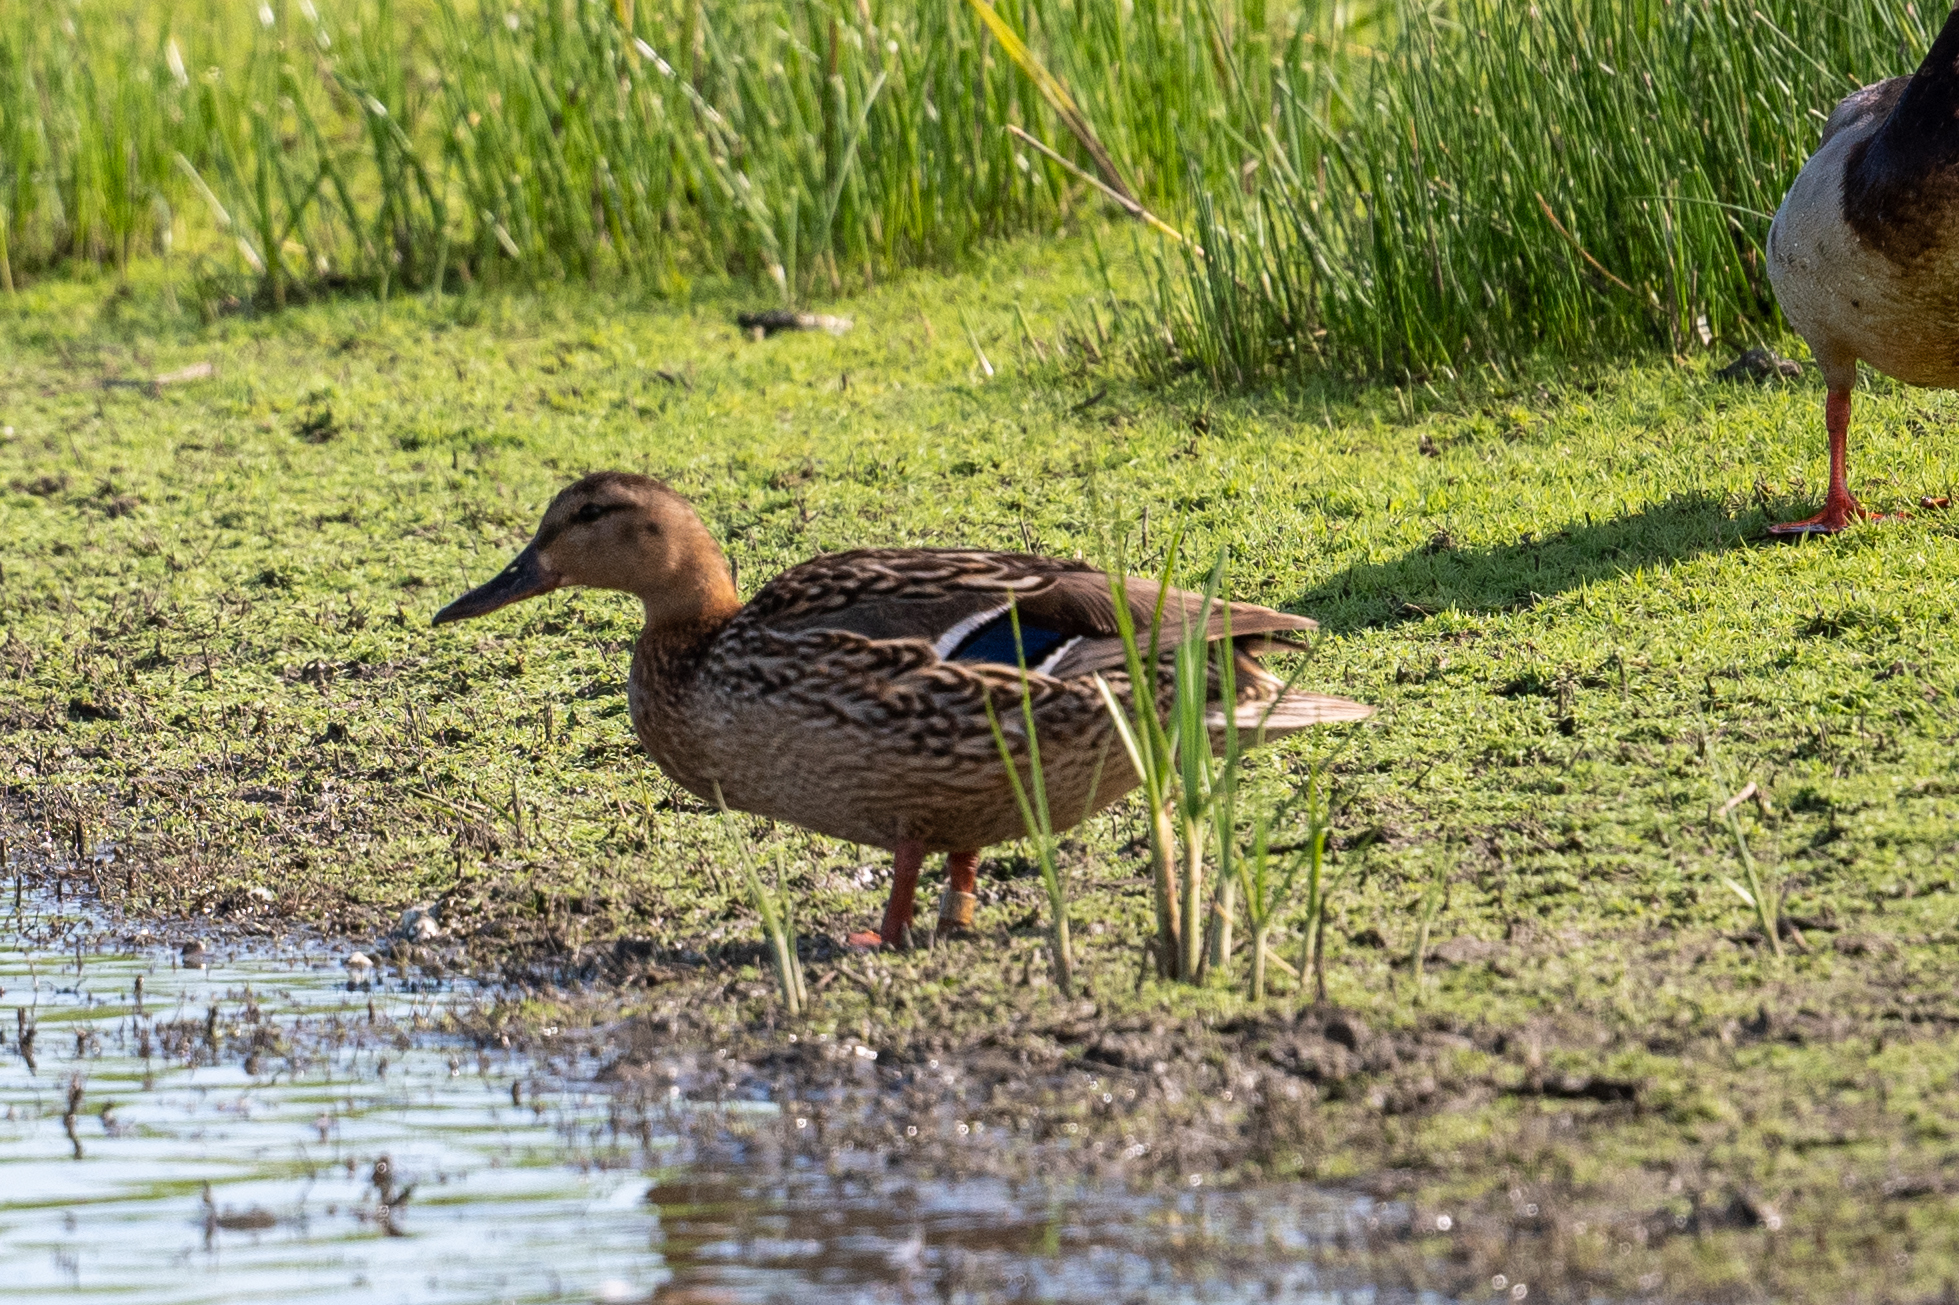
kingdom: Animalia
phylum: Chordata
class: Aves
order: Anseriformes
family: Anatidae
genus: Anas
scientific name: Anas platyrhynchos
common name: Mallard
